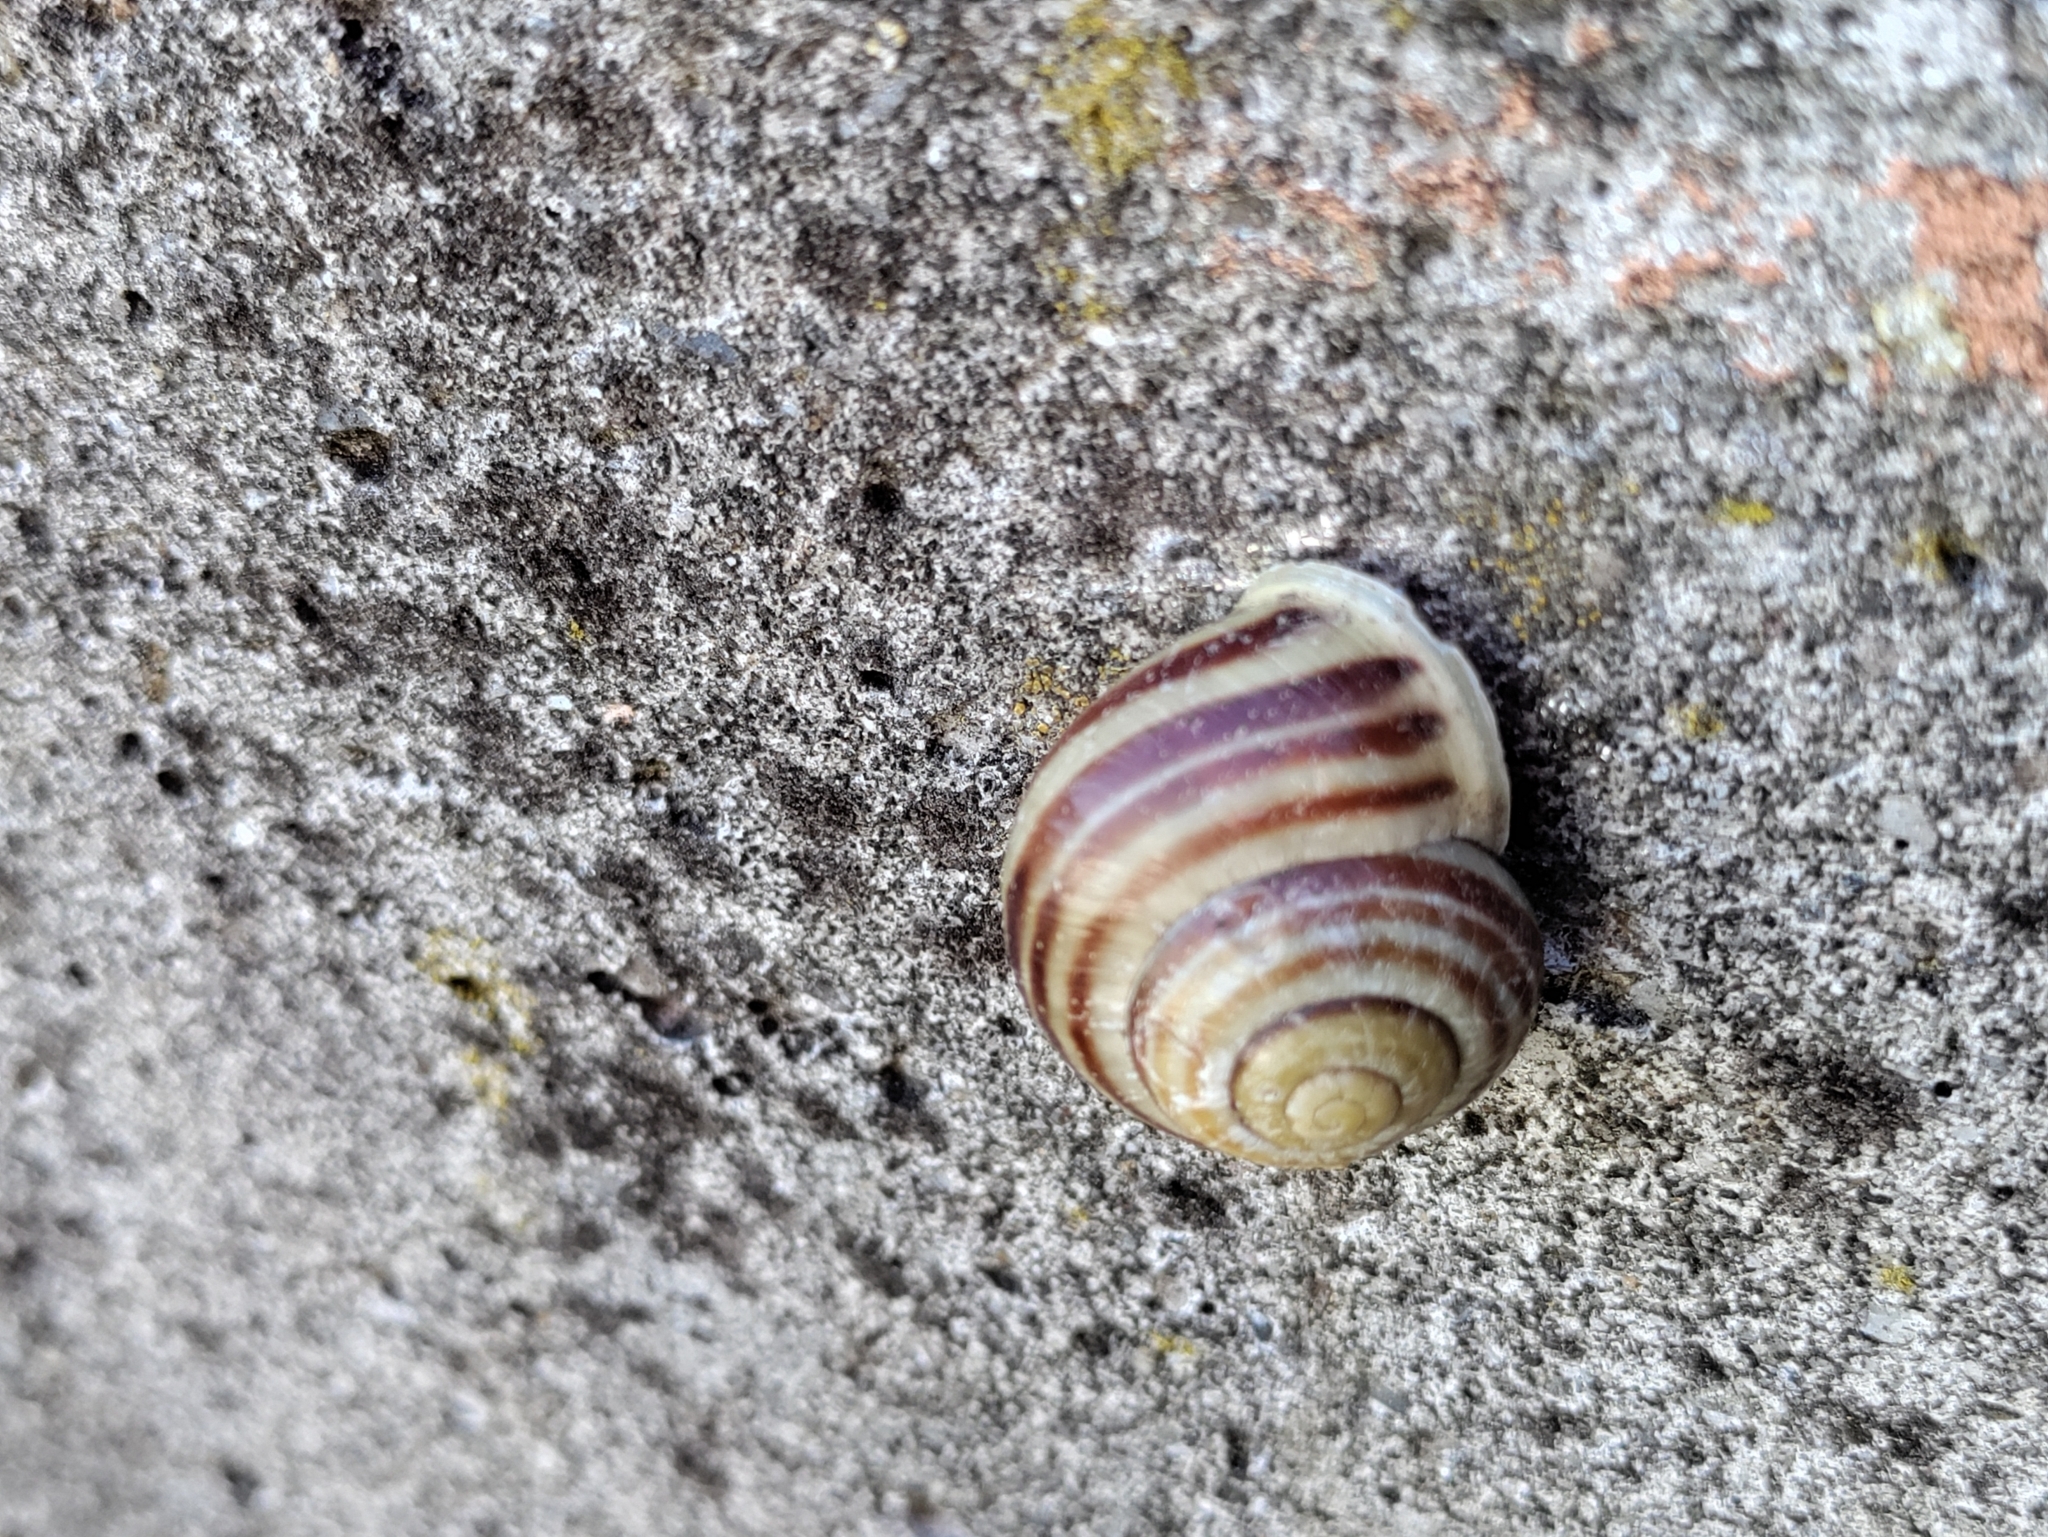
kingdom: Animalia
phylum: Mollusca
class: Gastropoda
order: Stylommatophora
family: Helicidae
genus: Cepaea
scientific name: Cepaea hortensis
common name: White-lip gardensnail
